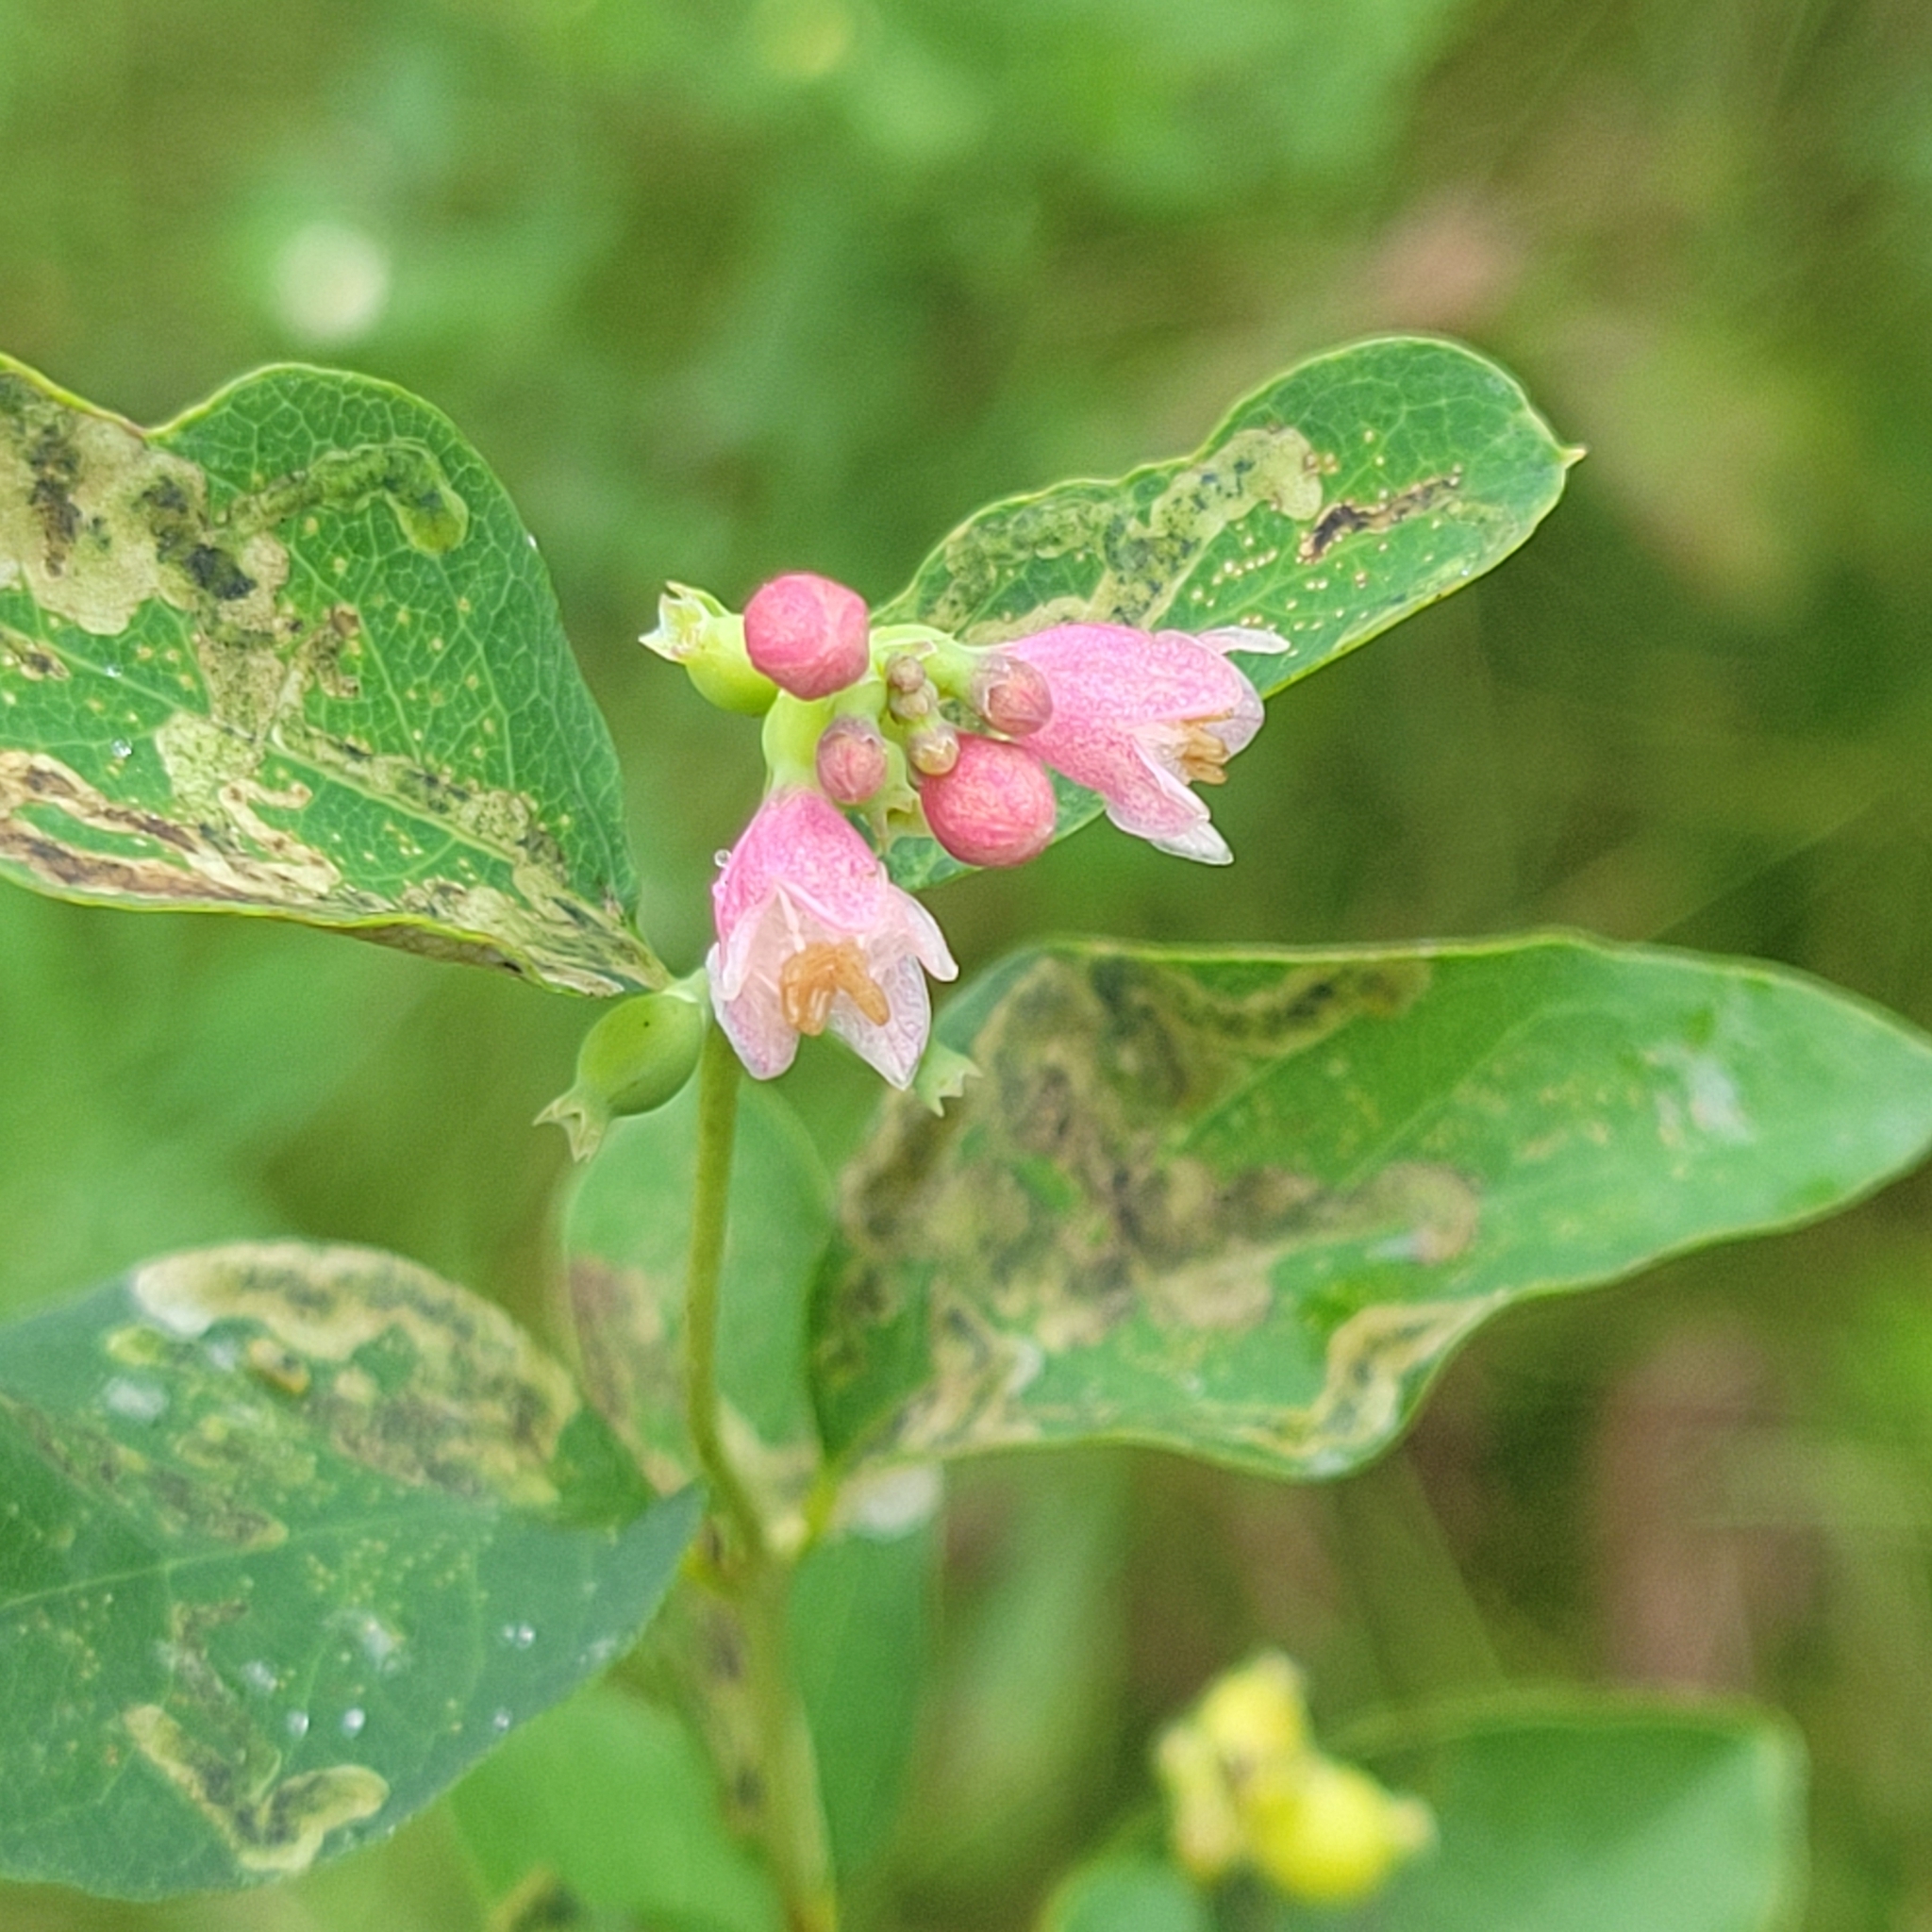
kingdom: Plantae
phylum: Tracheophyta
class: Magnoliopsida
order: Dipsacales
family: Caprifoliaceae
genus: Symphoricarpos
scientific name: Symphoricarpos albus
